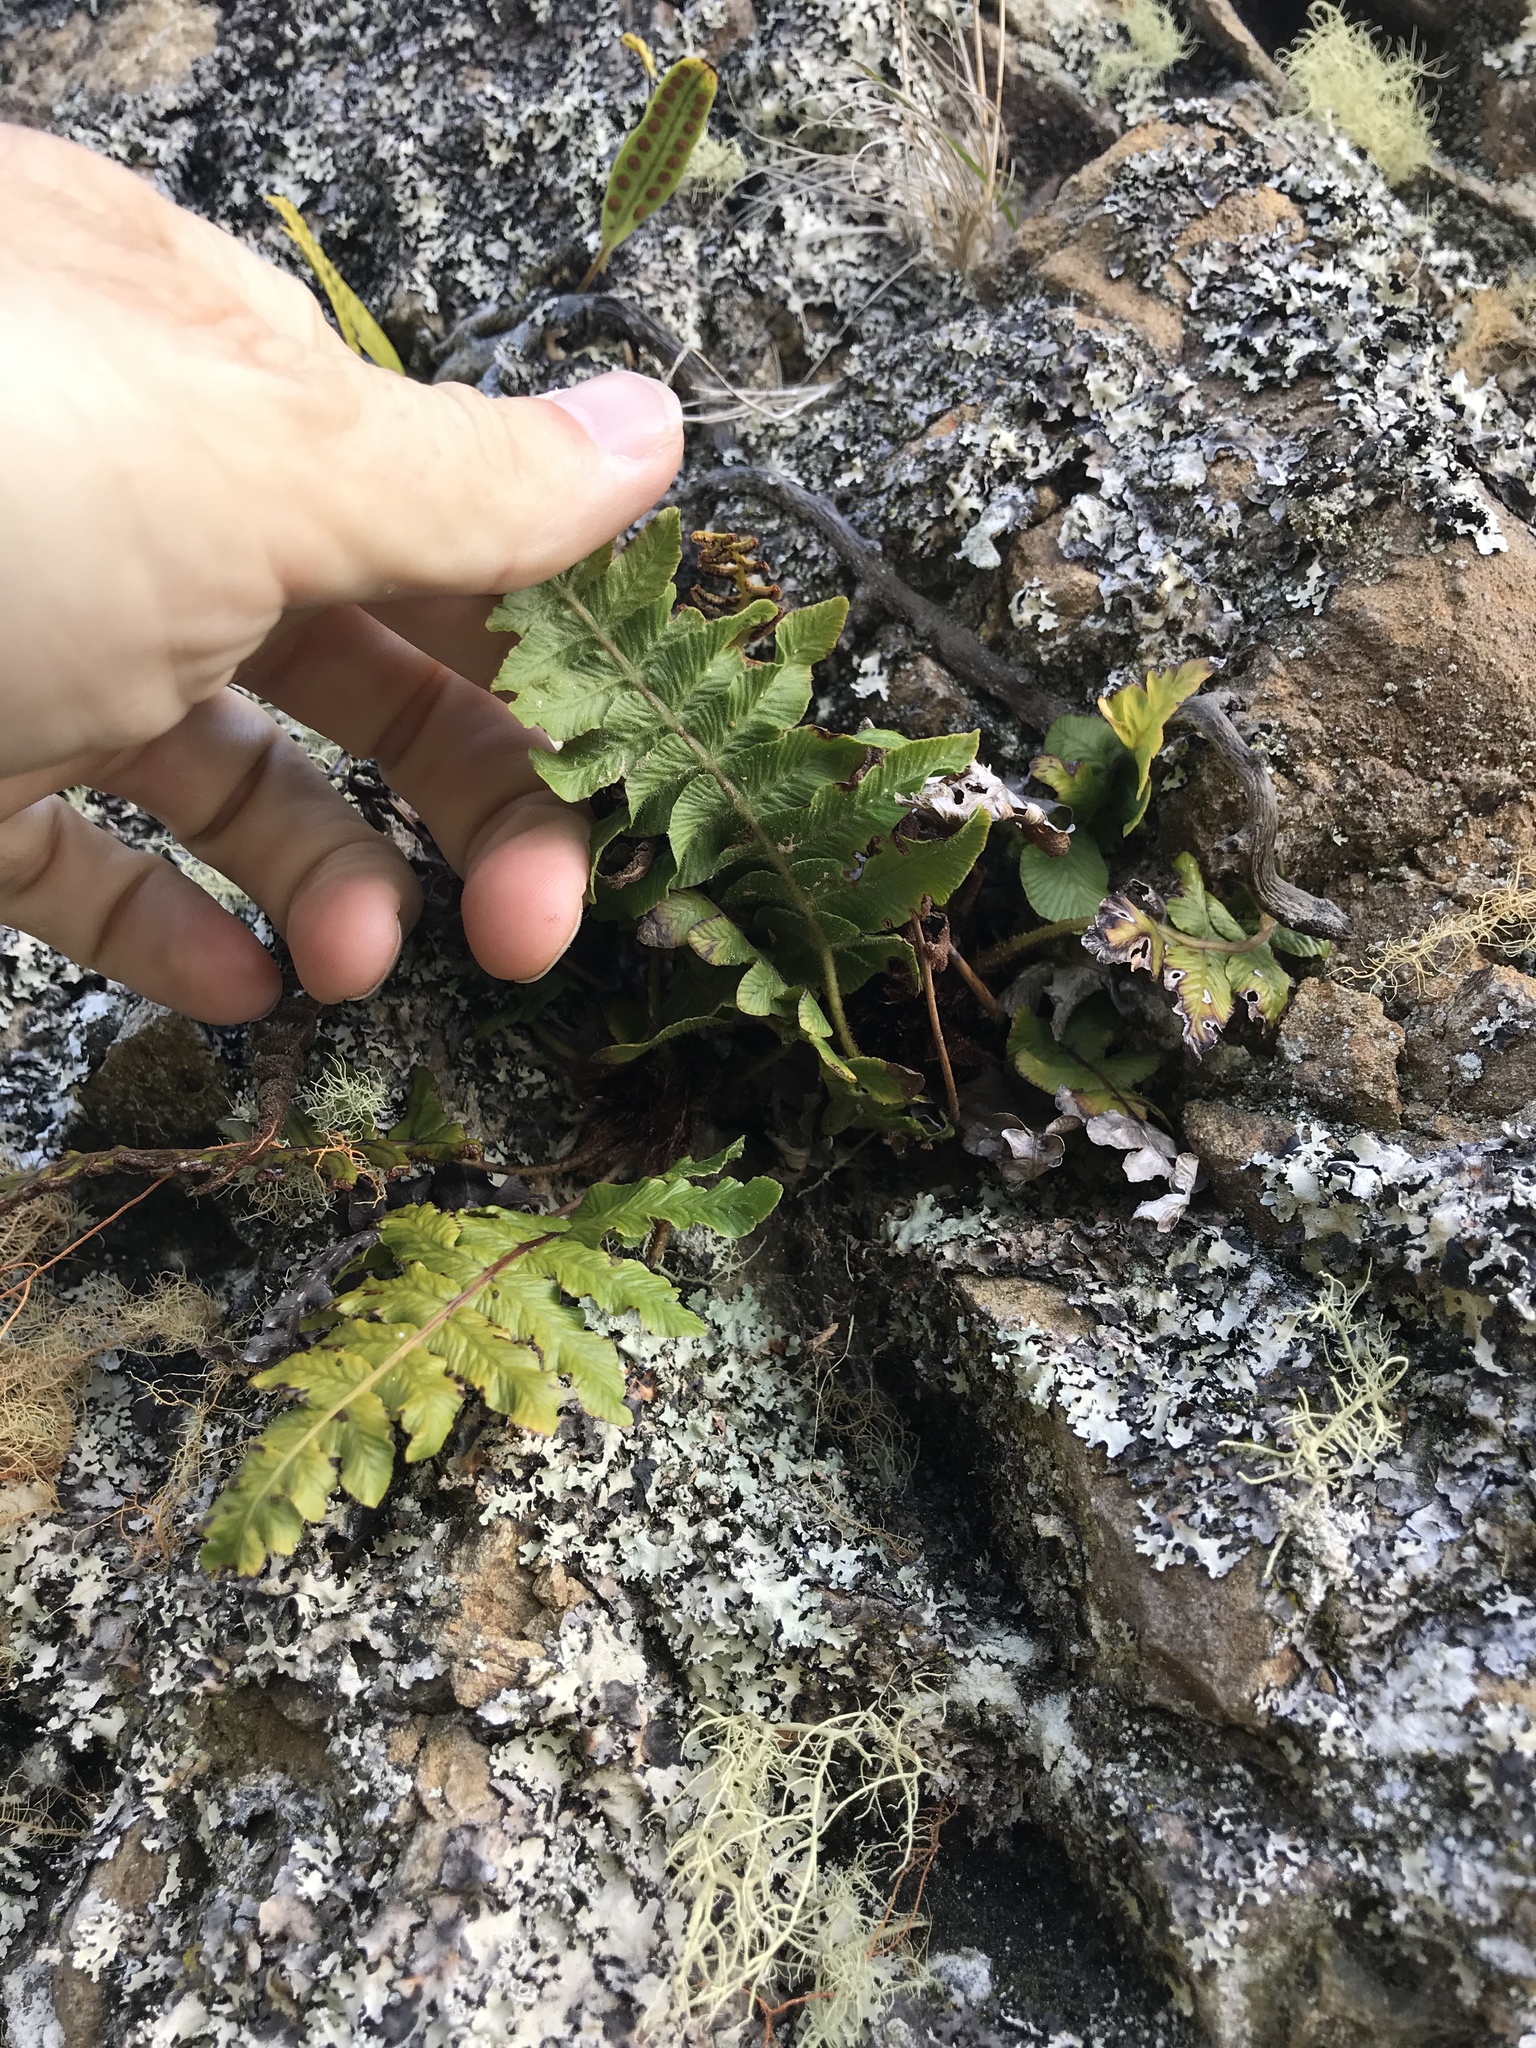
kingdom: Plantae
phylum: Tracheophyta
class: Polypodiopsida
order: Polypodiales
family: Blechnaceae
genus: Cranfillia
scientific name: Cranfillia deltoides
